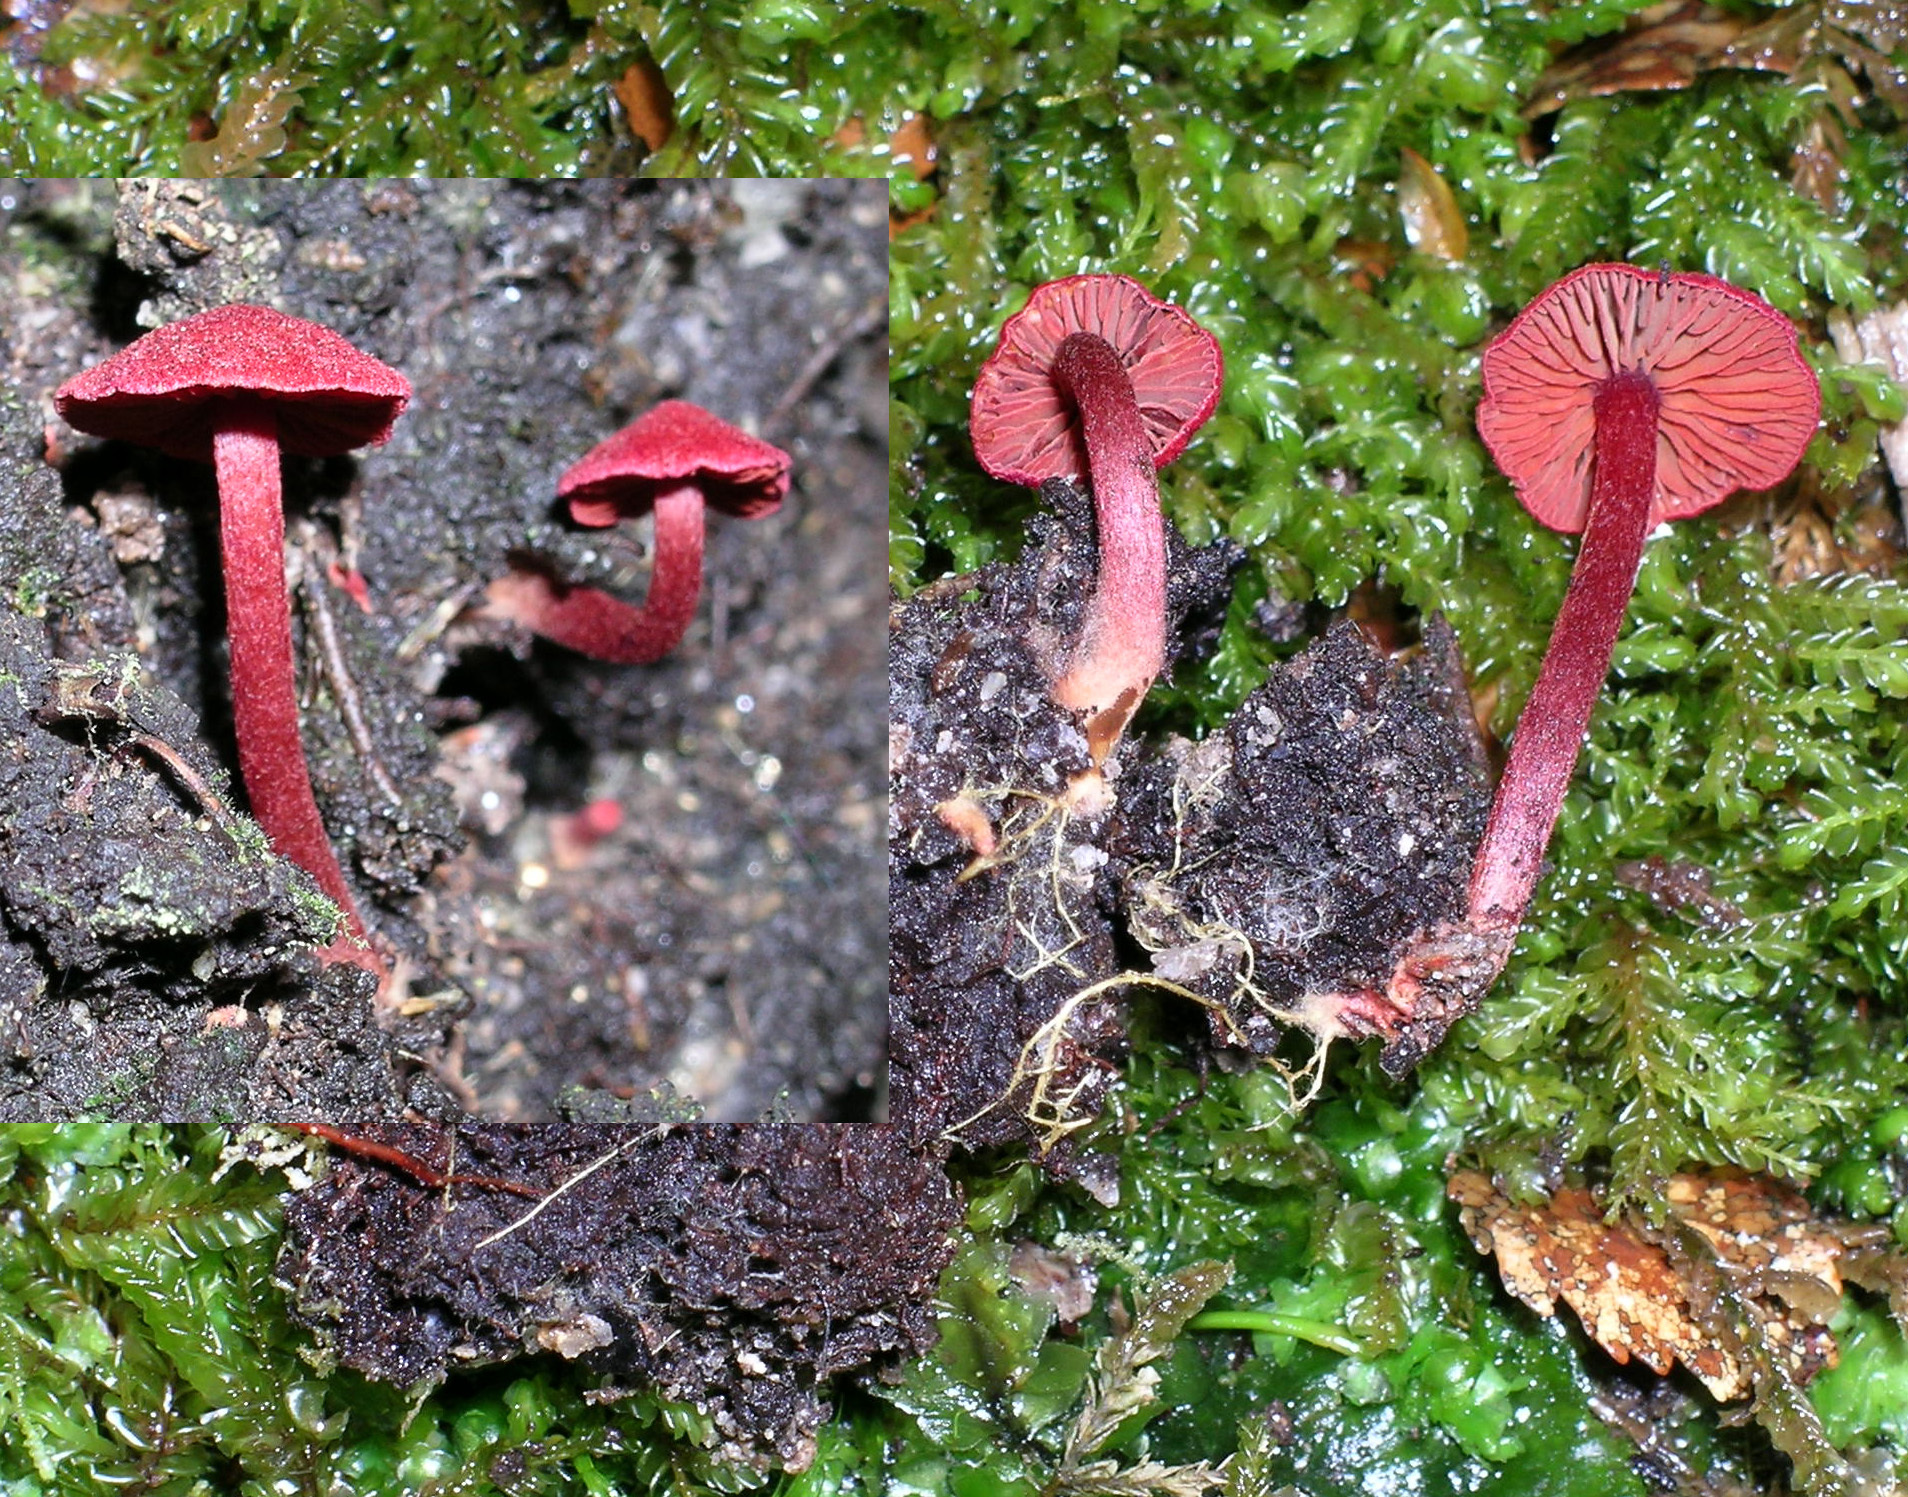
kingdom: Fungi
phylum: Basidiomycota
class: Agaricomycetes
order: Agaricales
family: Cortinariaceae
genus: Cortinarius
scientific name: Cortinarius rubripurpuratus
